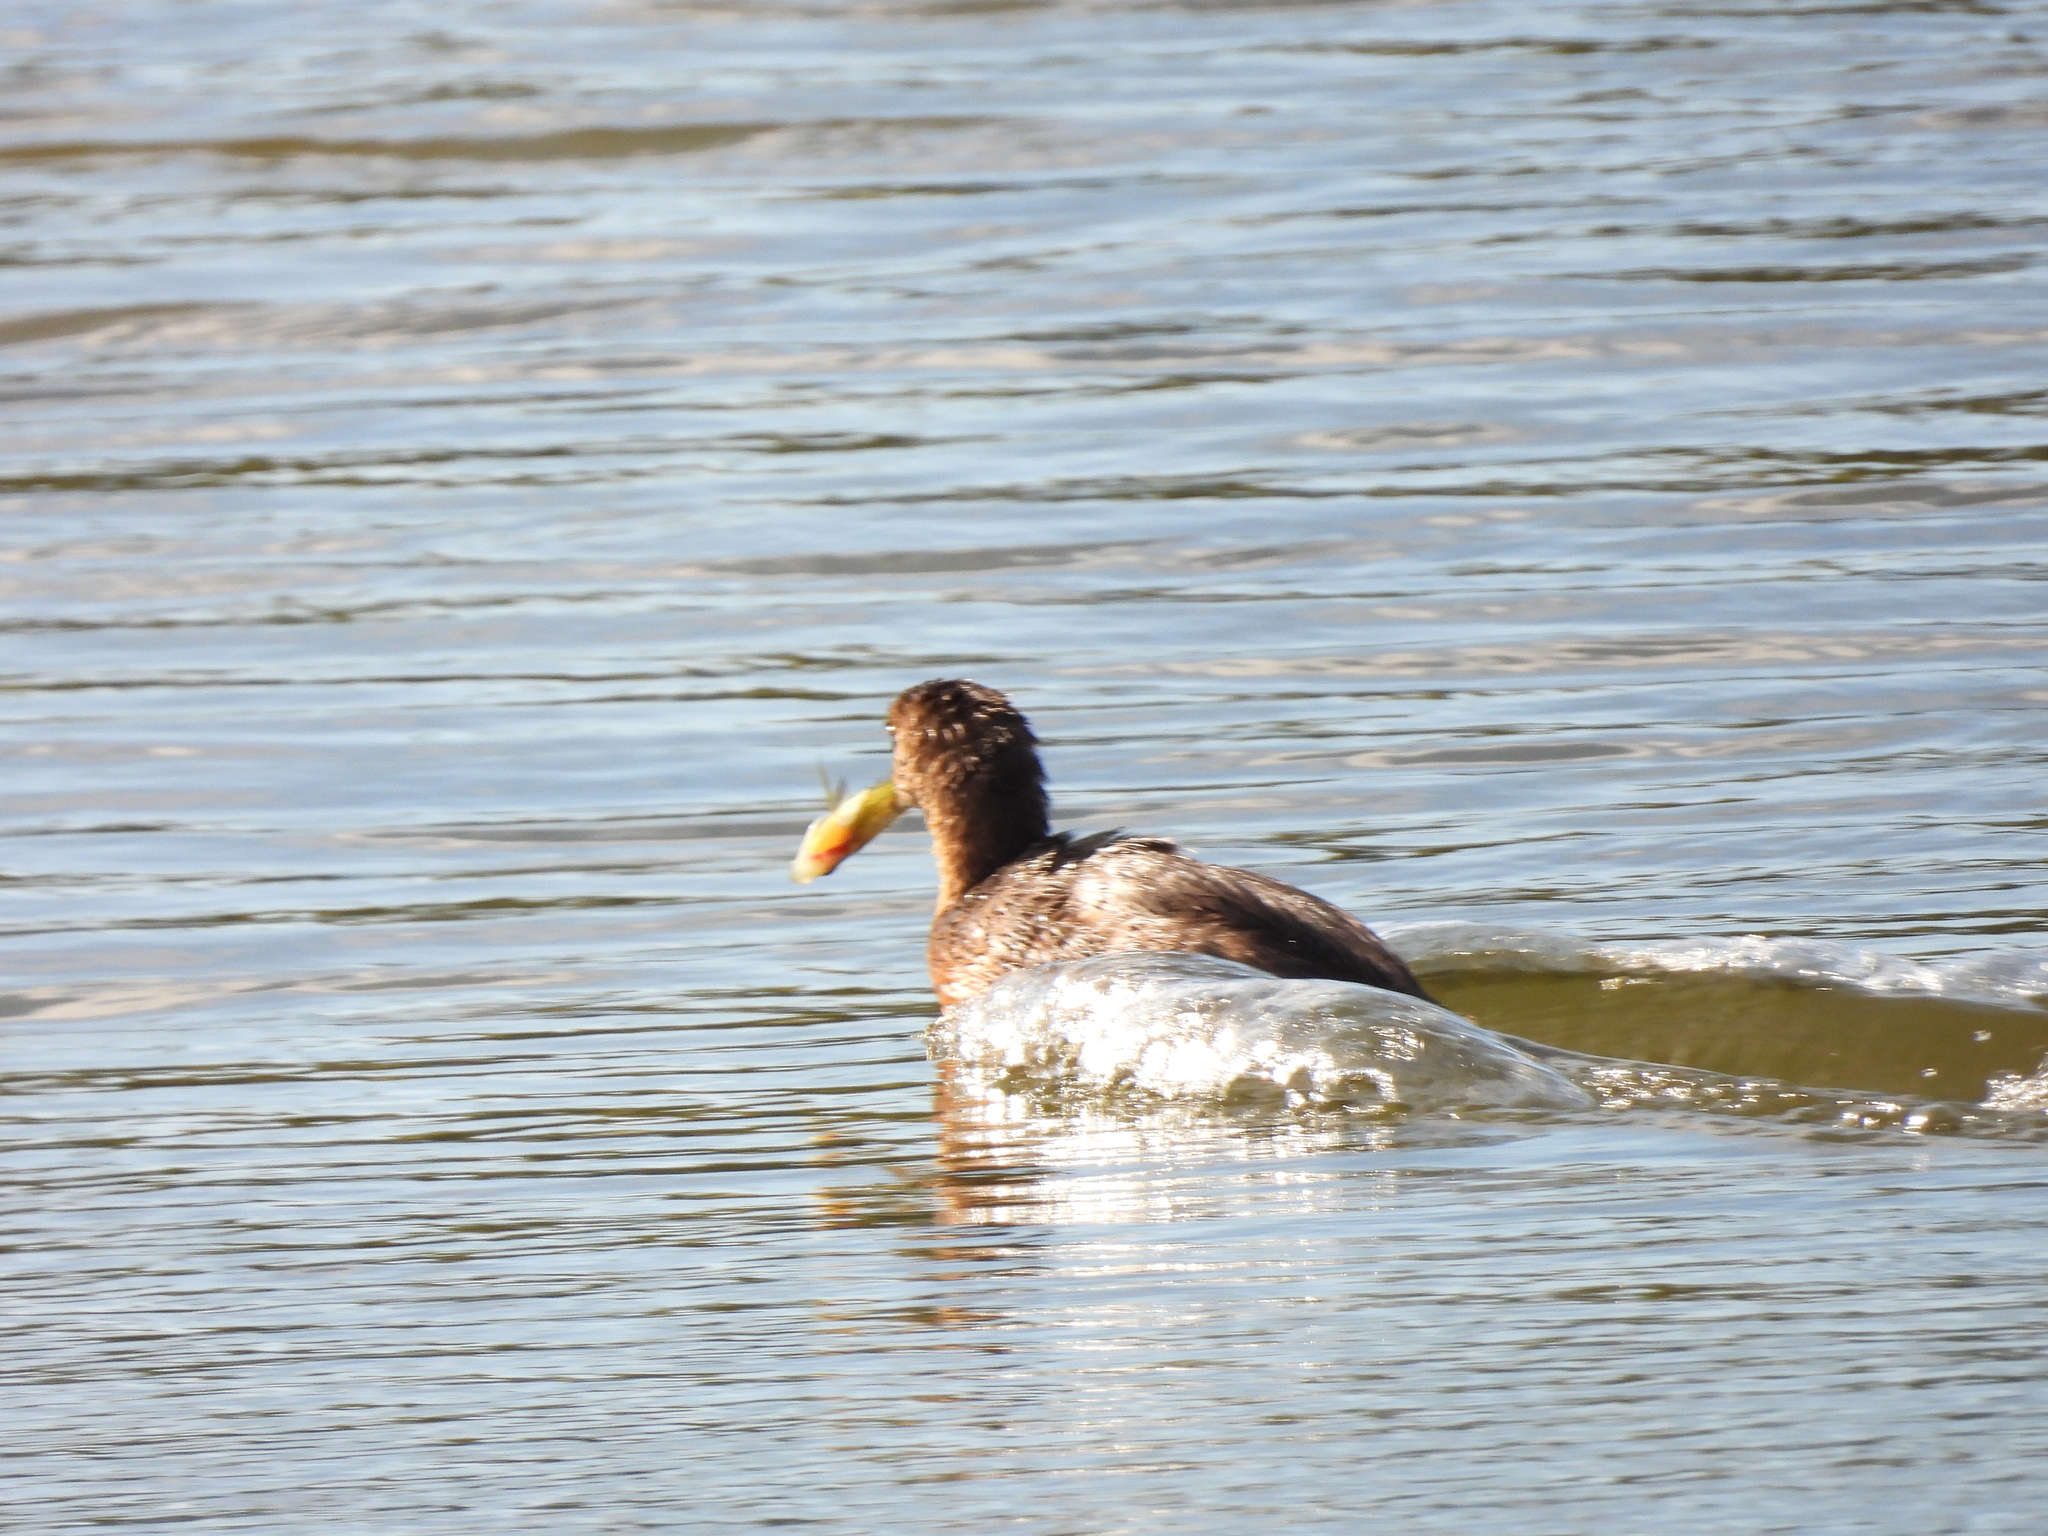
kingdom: Animalia
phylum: Chordata
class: Aves
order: Podicipediformes
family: Podicipedidae
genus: Podilymbus
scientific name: Podilymbus podiceps
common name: Pied-billed grebe
